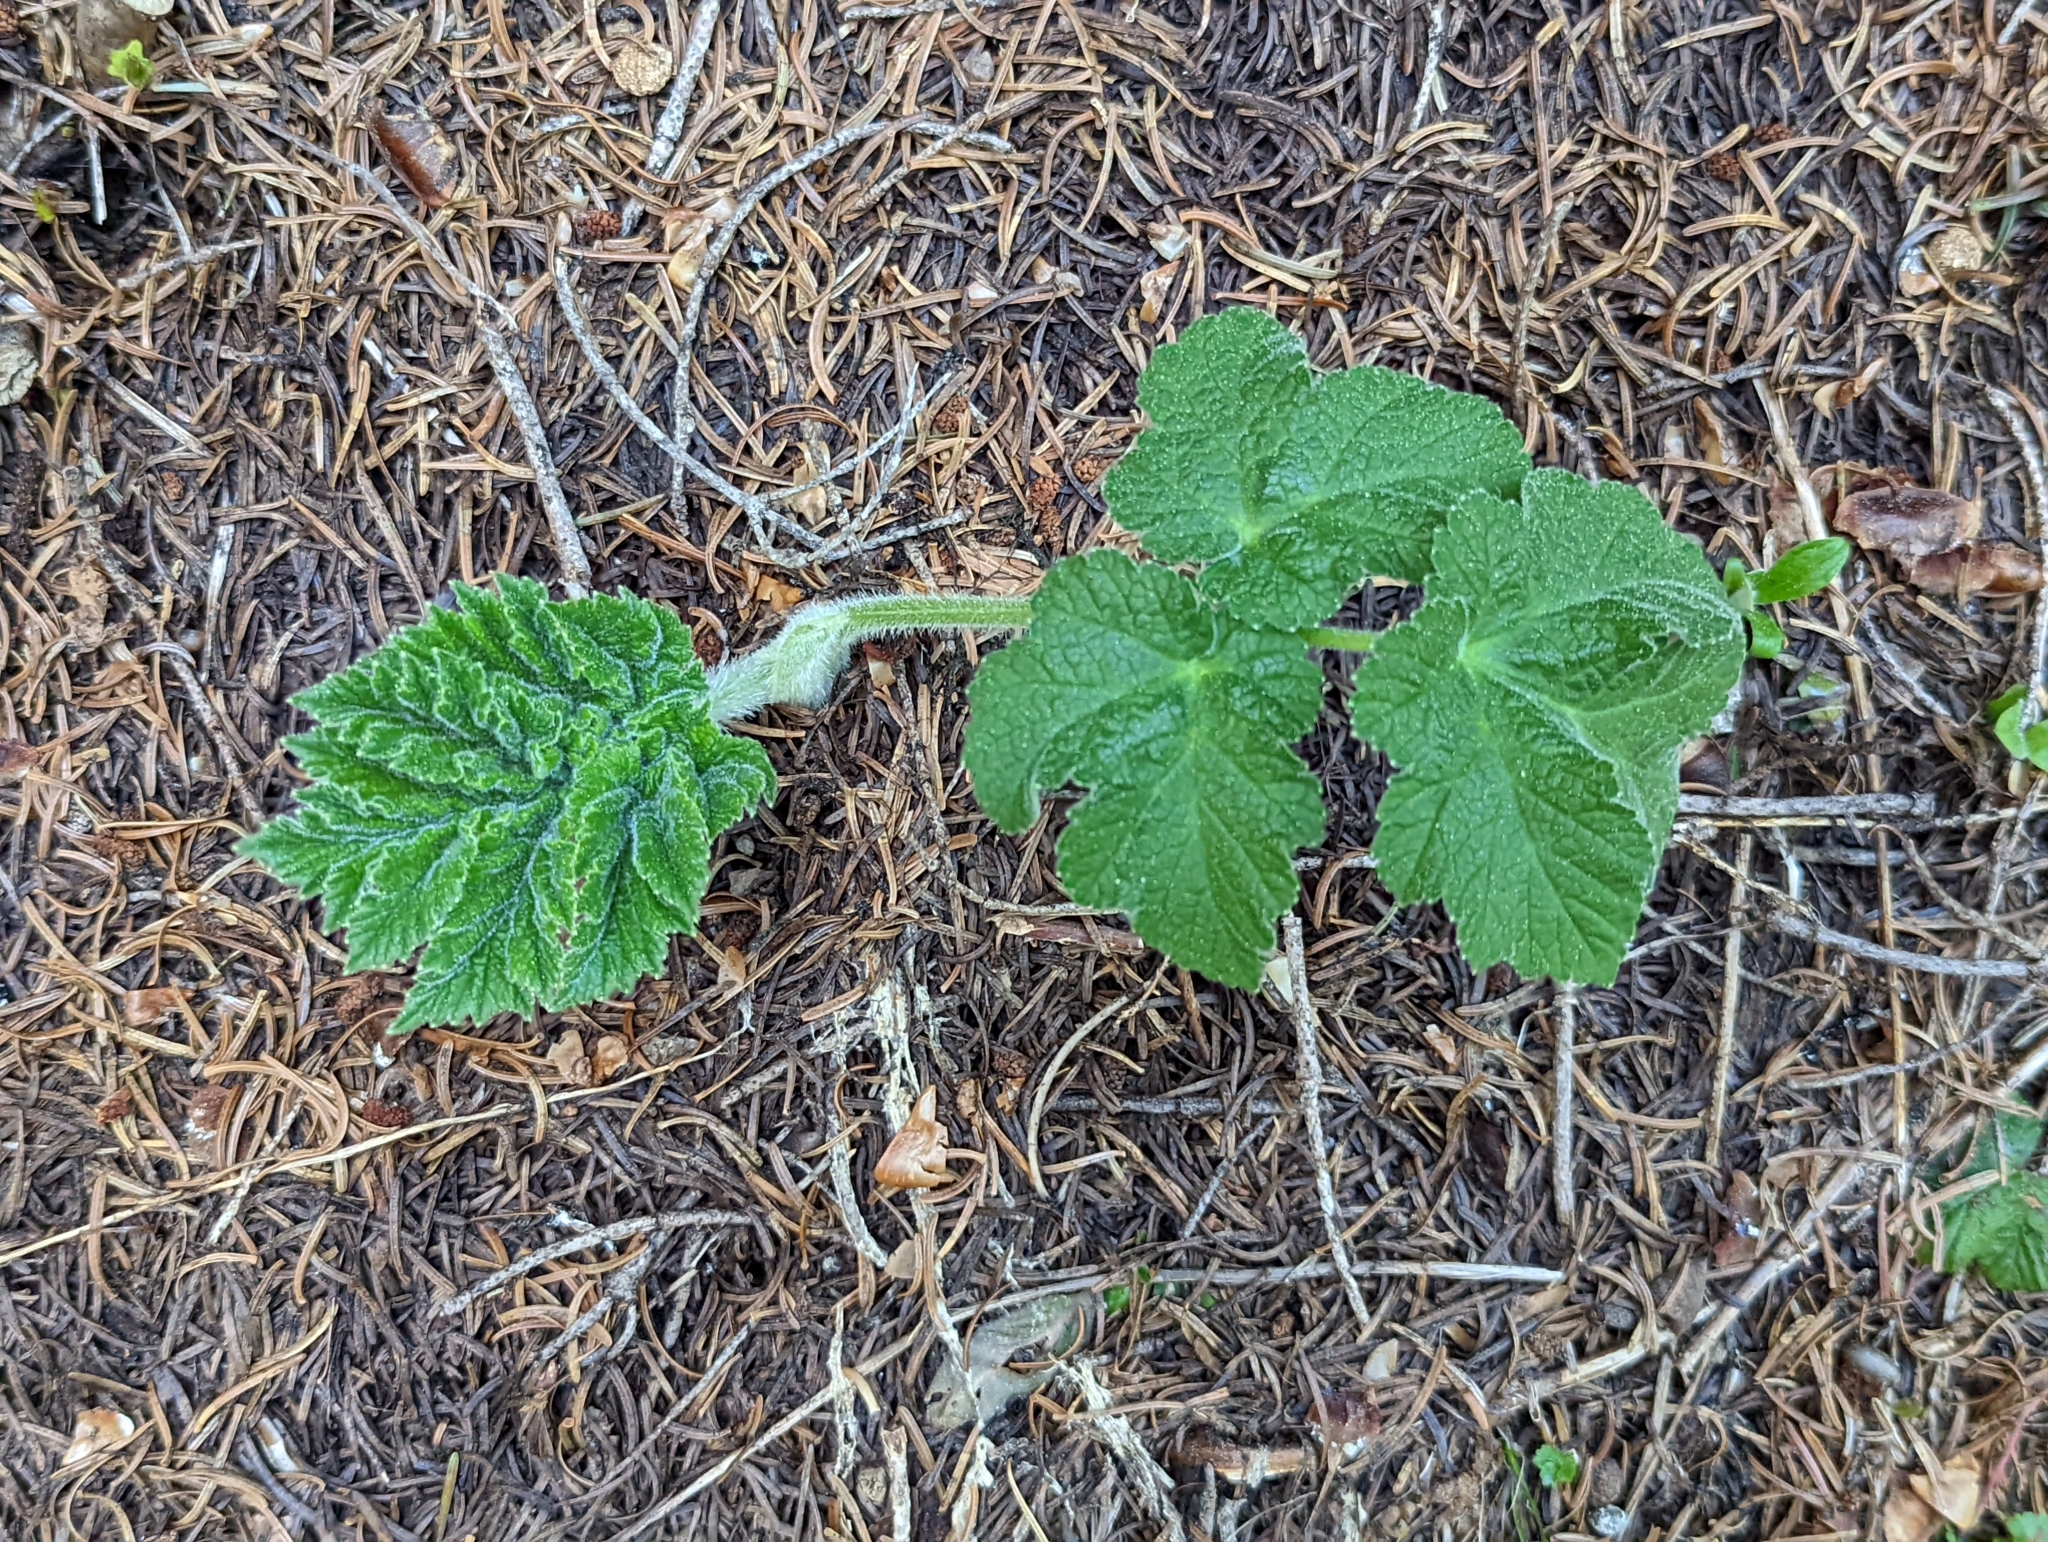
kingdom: Plantae
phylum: Tracheophyta
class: Magnoliopsida
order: Apiales
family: Apiaceae
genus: Heracleum
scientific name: Heracleum maximum
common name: American cow parsnip
